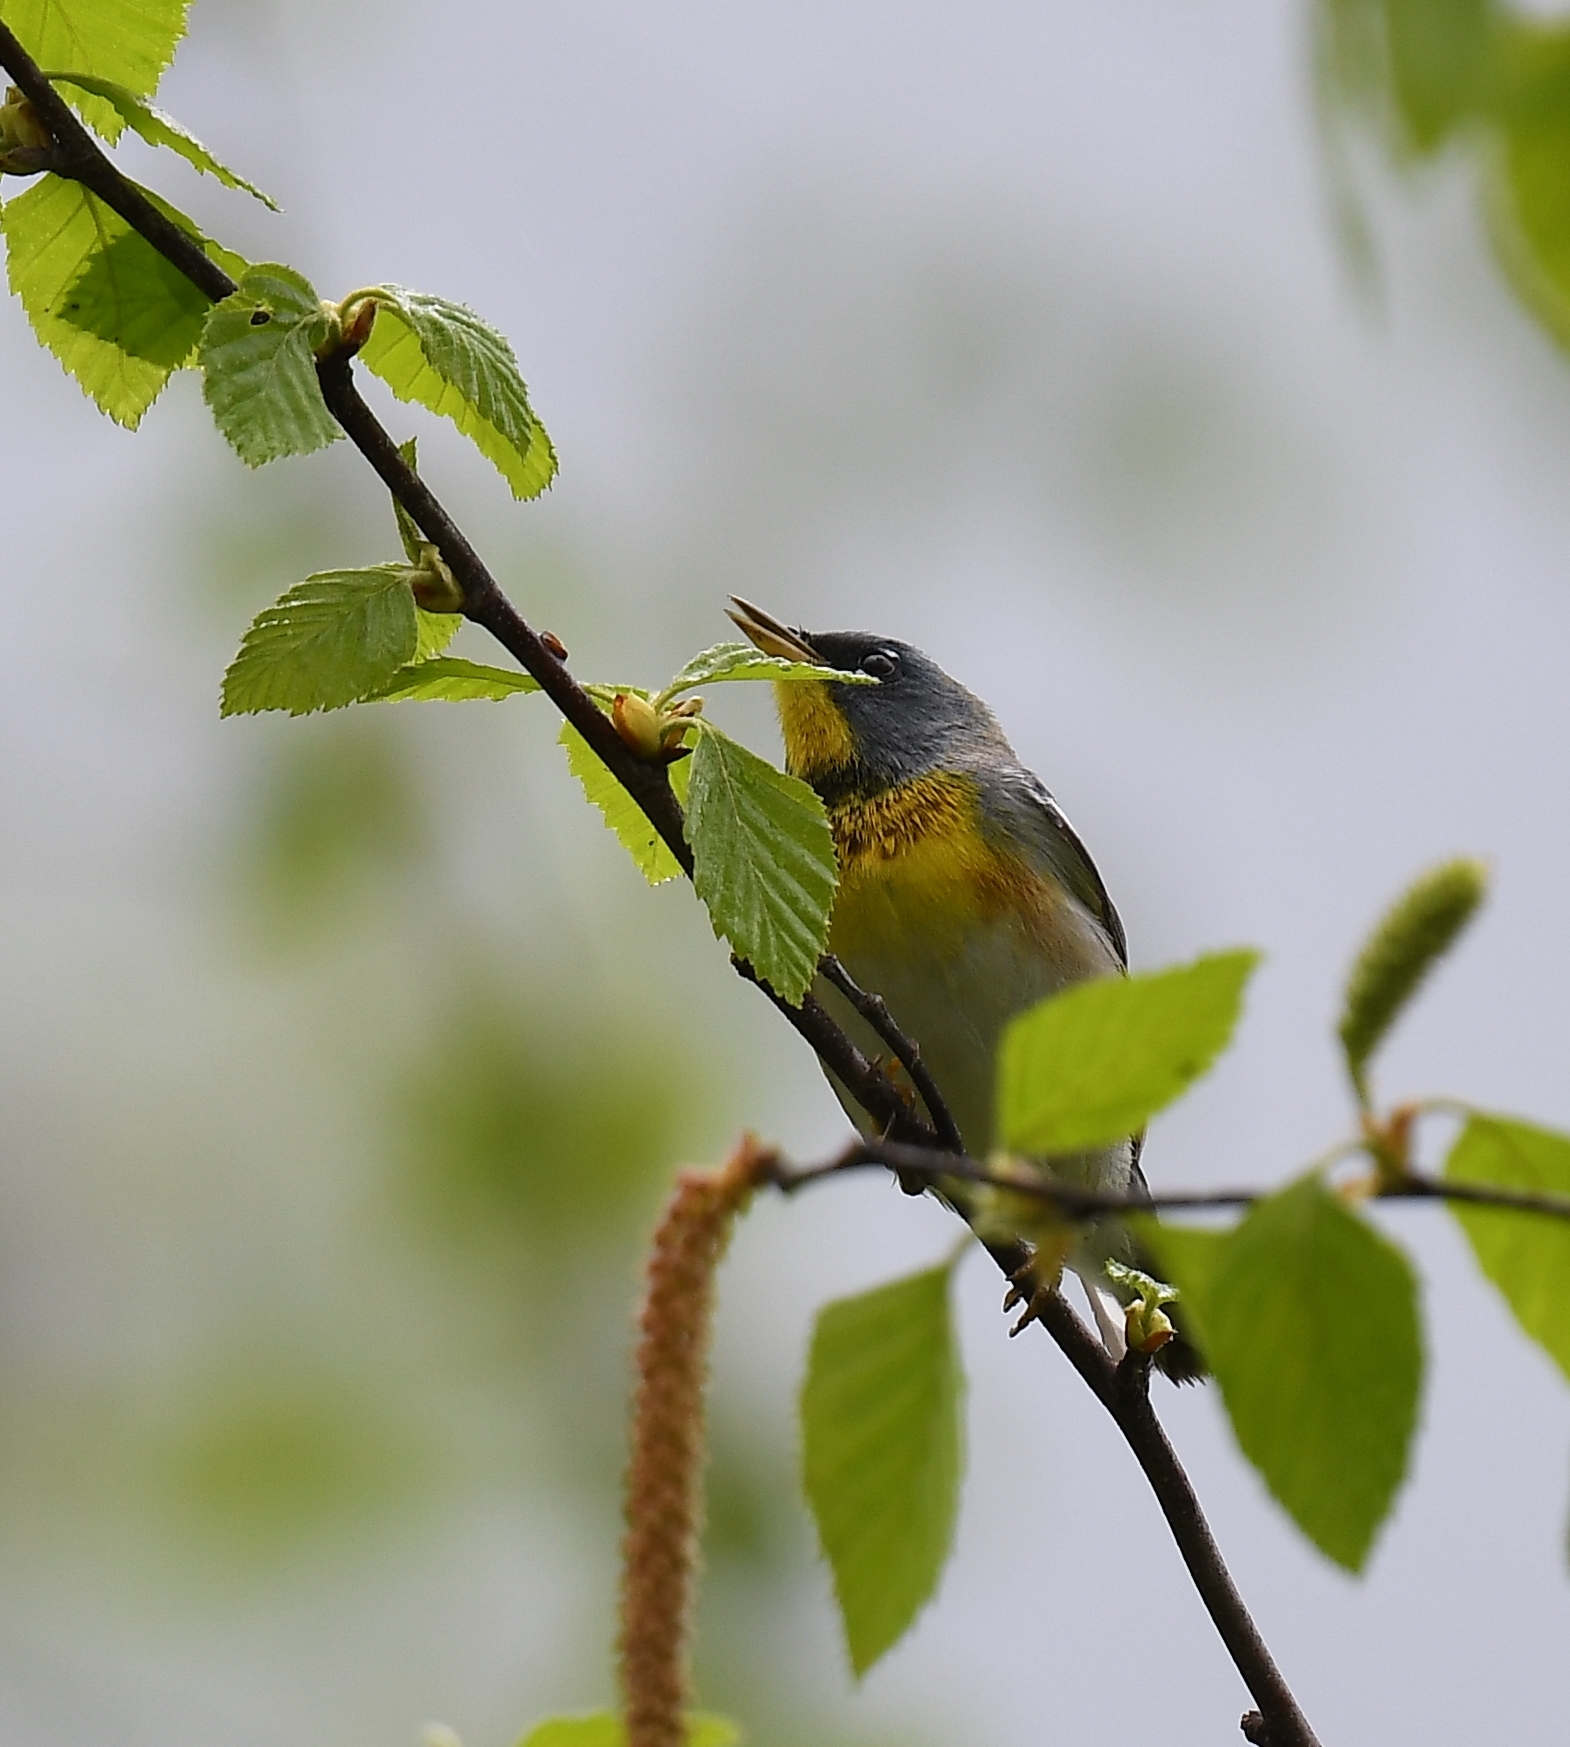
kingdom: Animalia
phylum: Chordata
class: Aves
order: Passeriformes
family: Parulidae
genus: Setophaga
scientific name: Setophaga americana
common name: Northern parula
